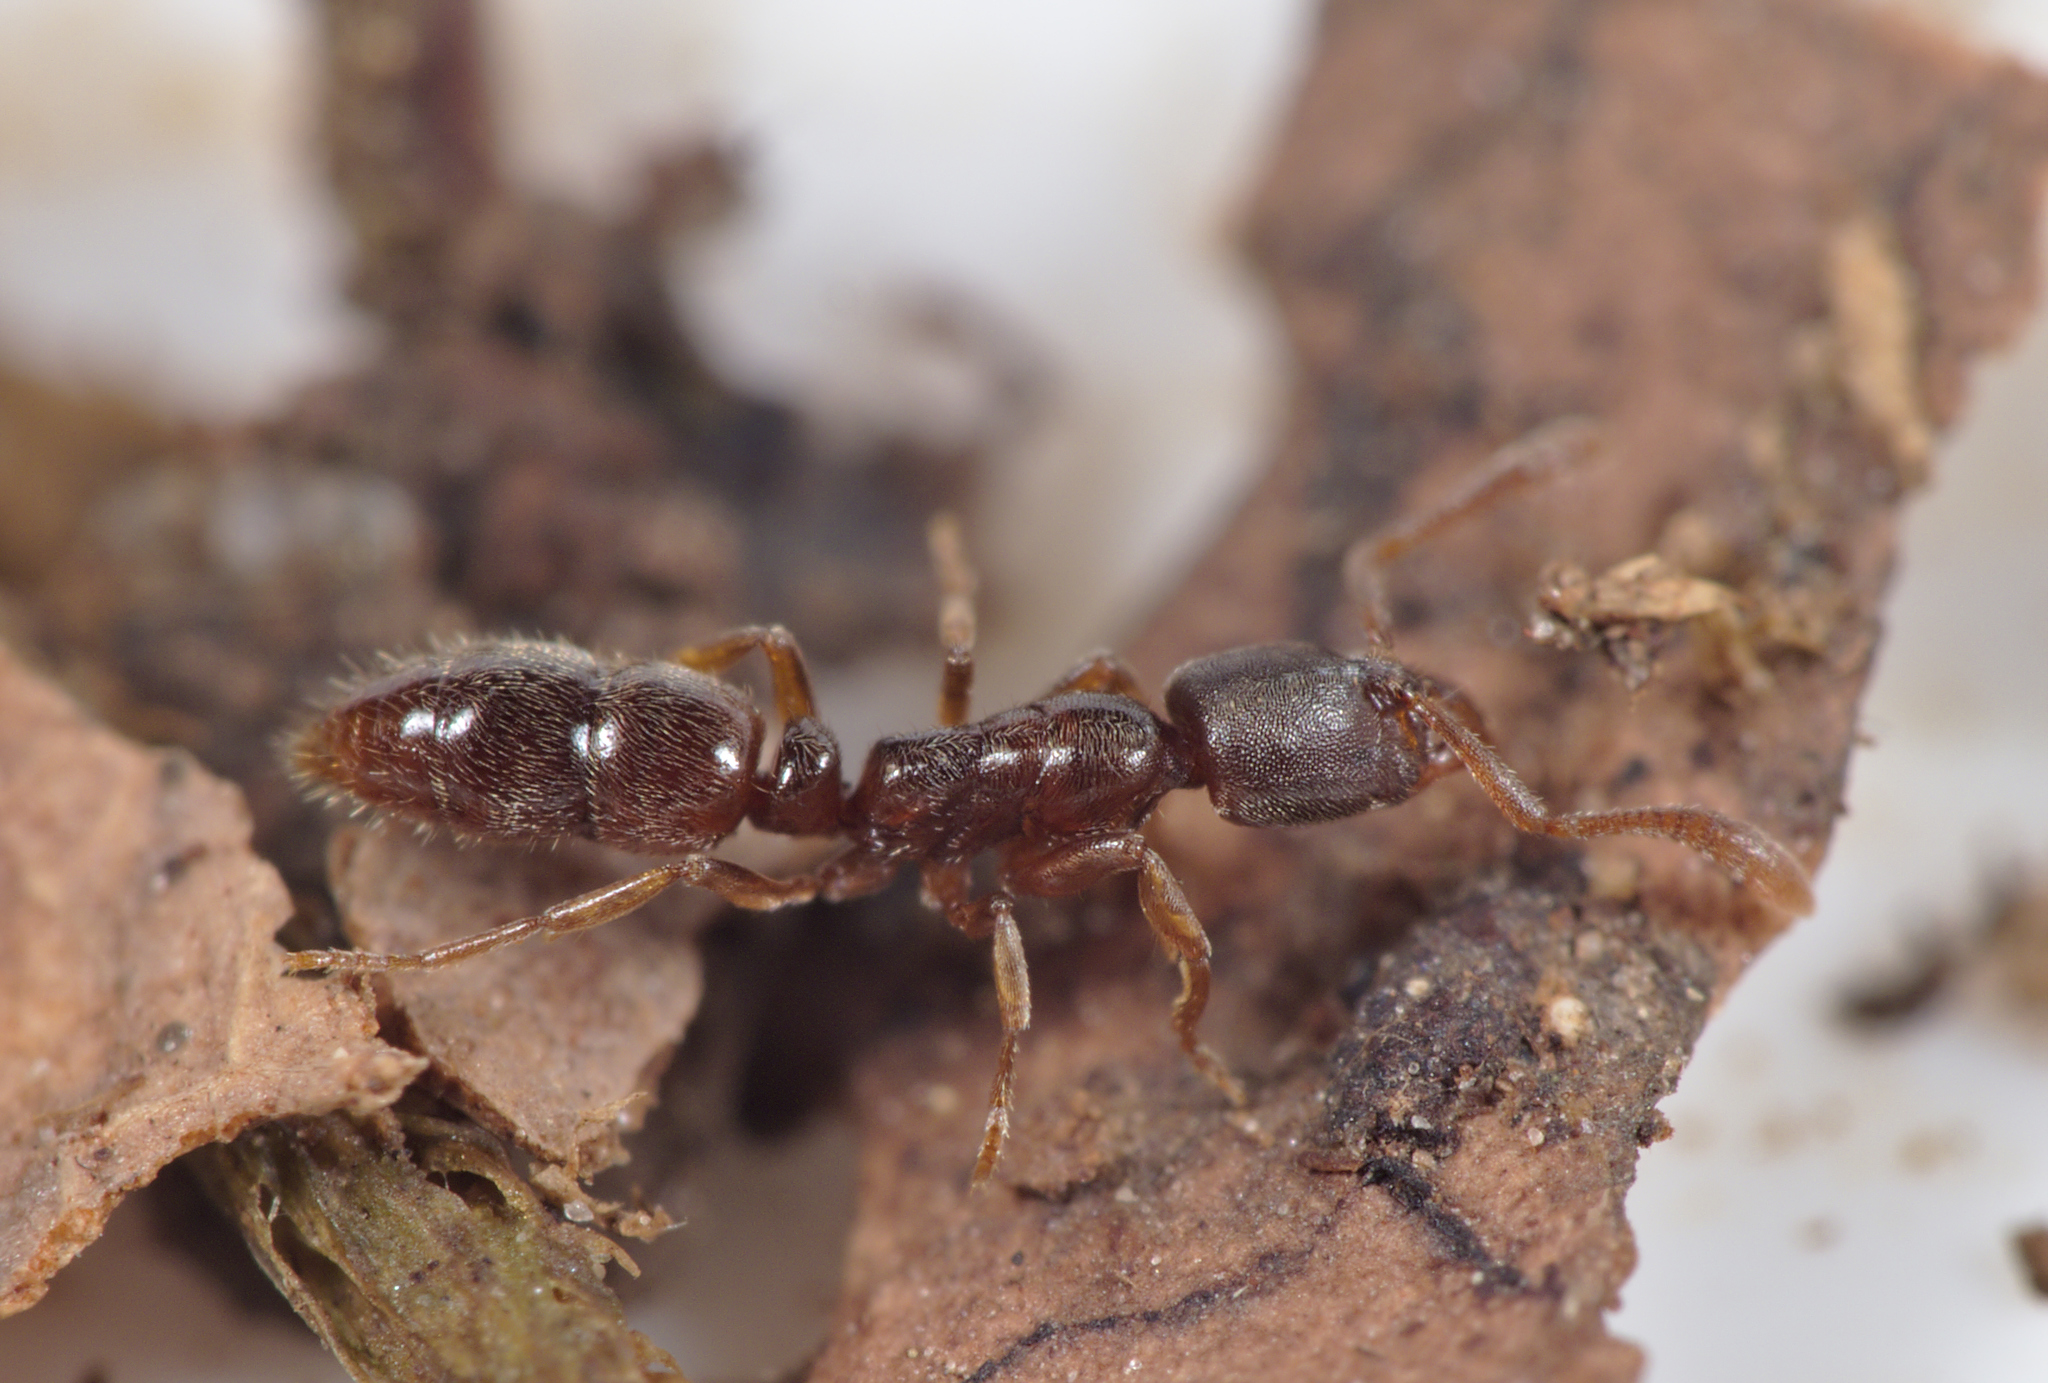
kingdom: Animalia
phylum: Arthropoda
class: Insecta
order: Hymenoptera
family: Formicidae
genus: Ponera
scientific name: Ponera coarctata
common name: Indolent ant
